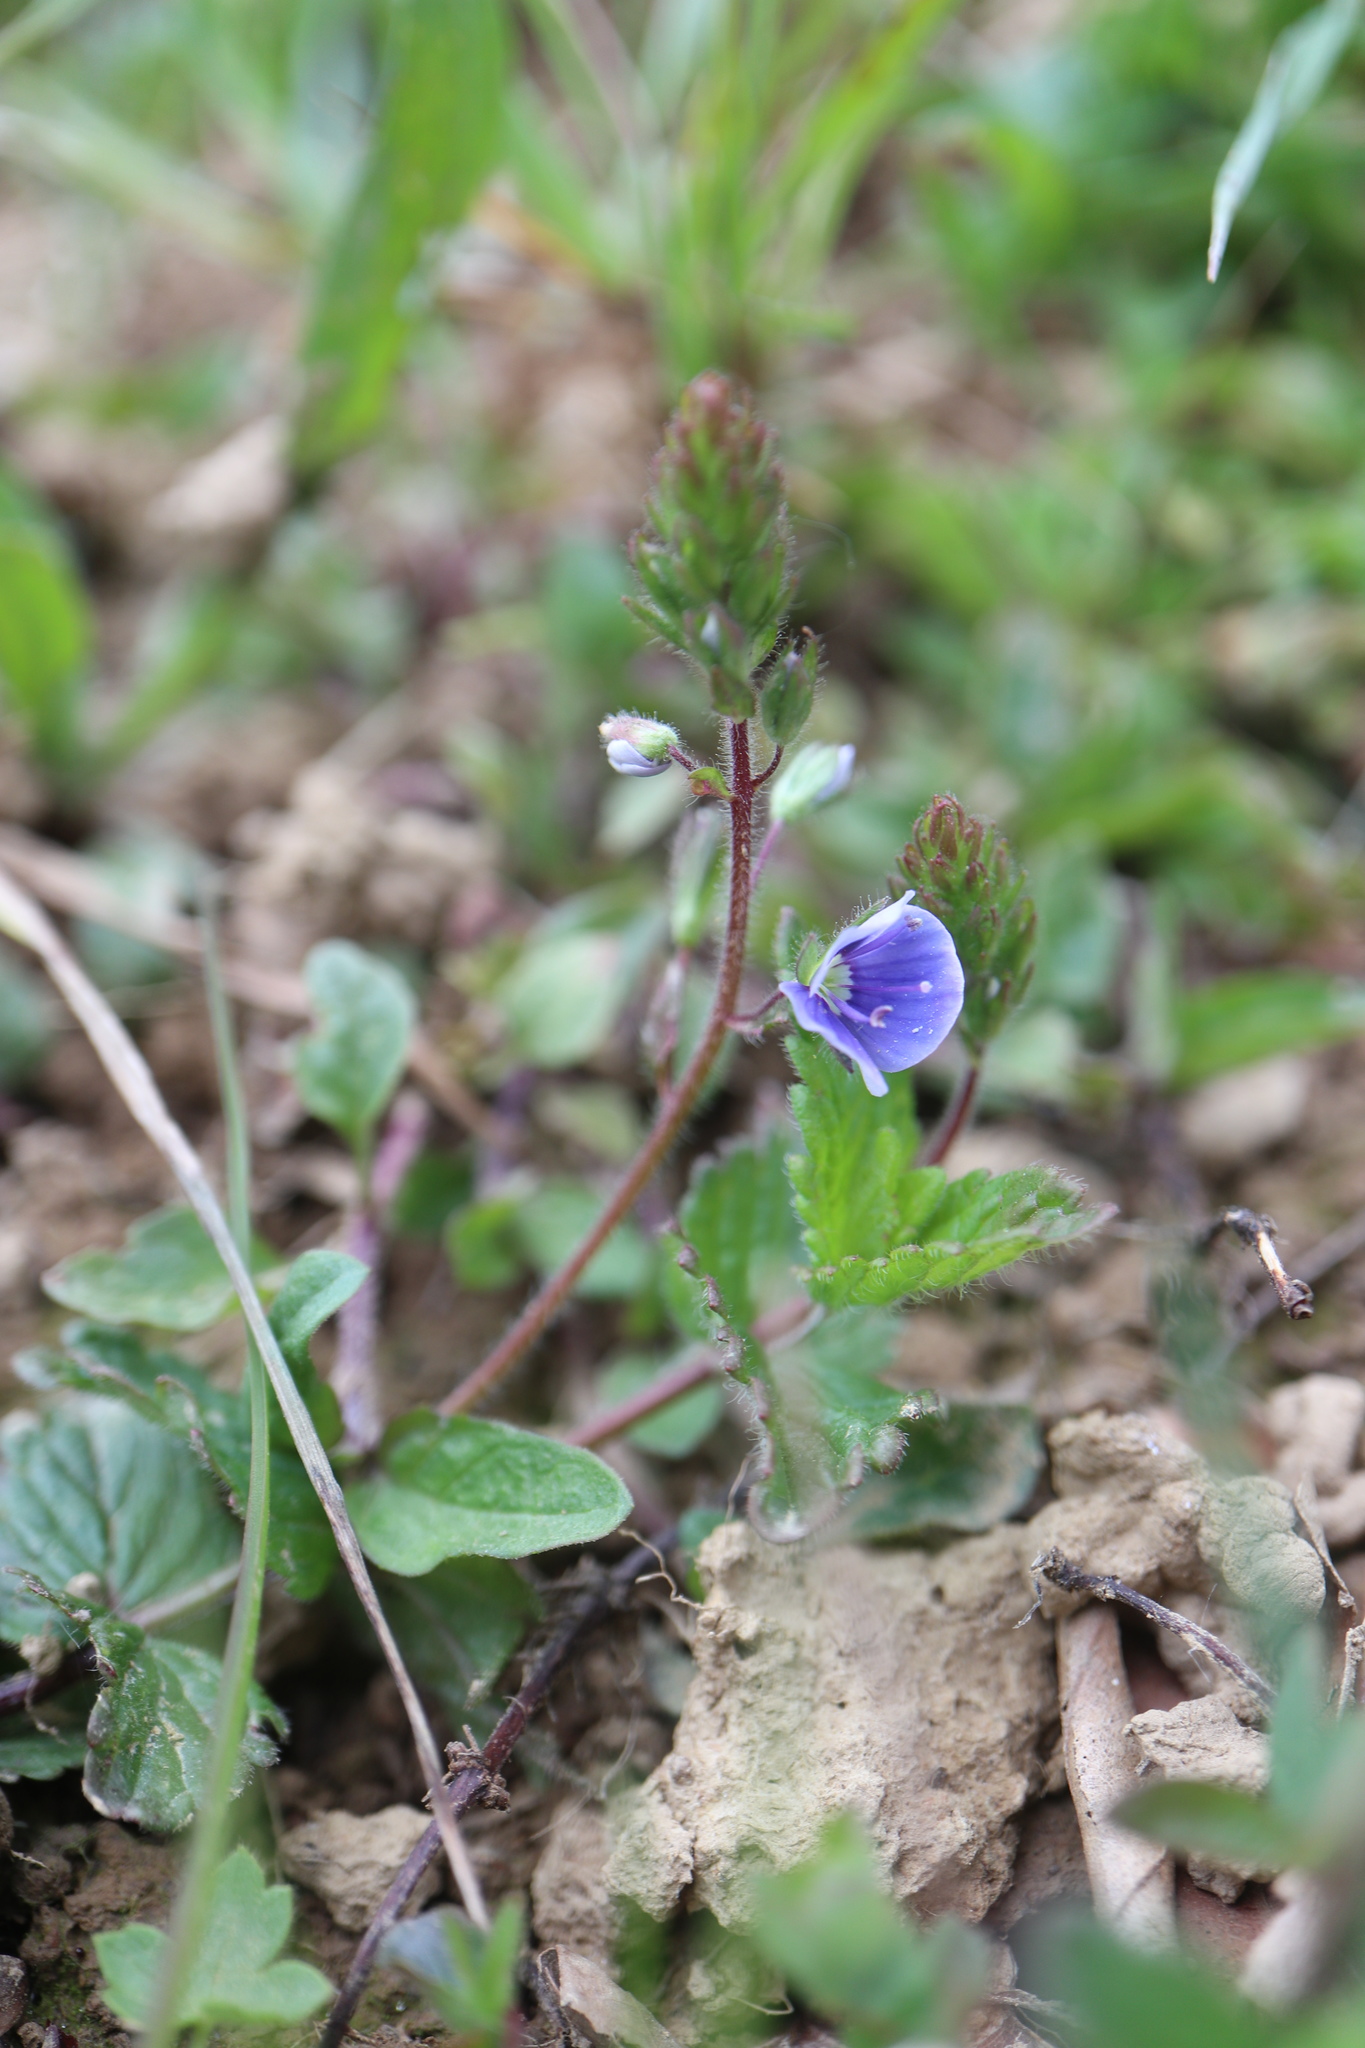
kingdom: Plantae
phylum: Tracheophyta
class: Magnoliopsida
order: Lamiales
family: Plantaginaceae
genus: Veronica
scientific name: Veronica chamaedrys
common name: Germander speedwell
